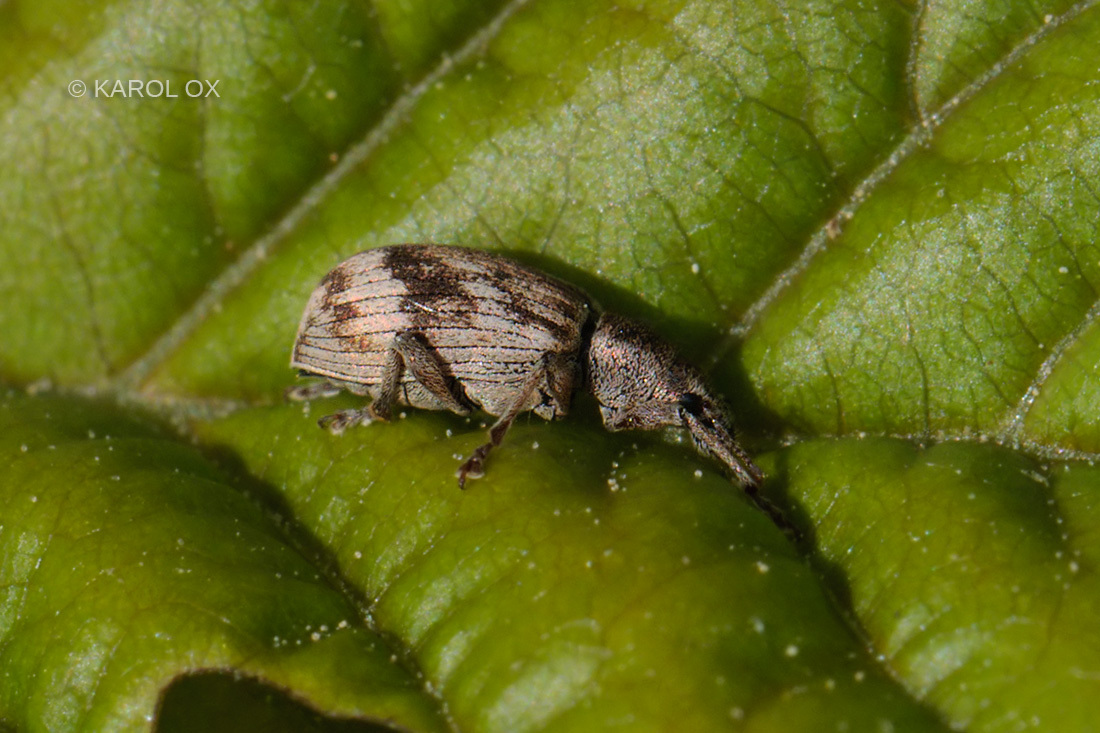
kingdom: Animalia
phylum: Arthropoda
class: Insecta
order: Coleoptera
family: Curculionidae
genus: Polydrusus
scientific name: Polydrusus tereticollis
